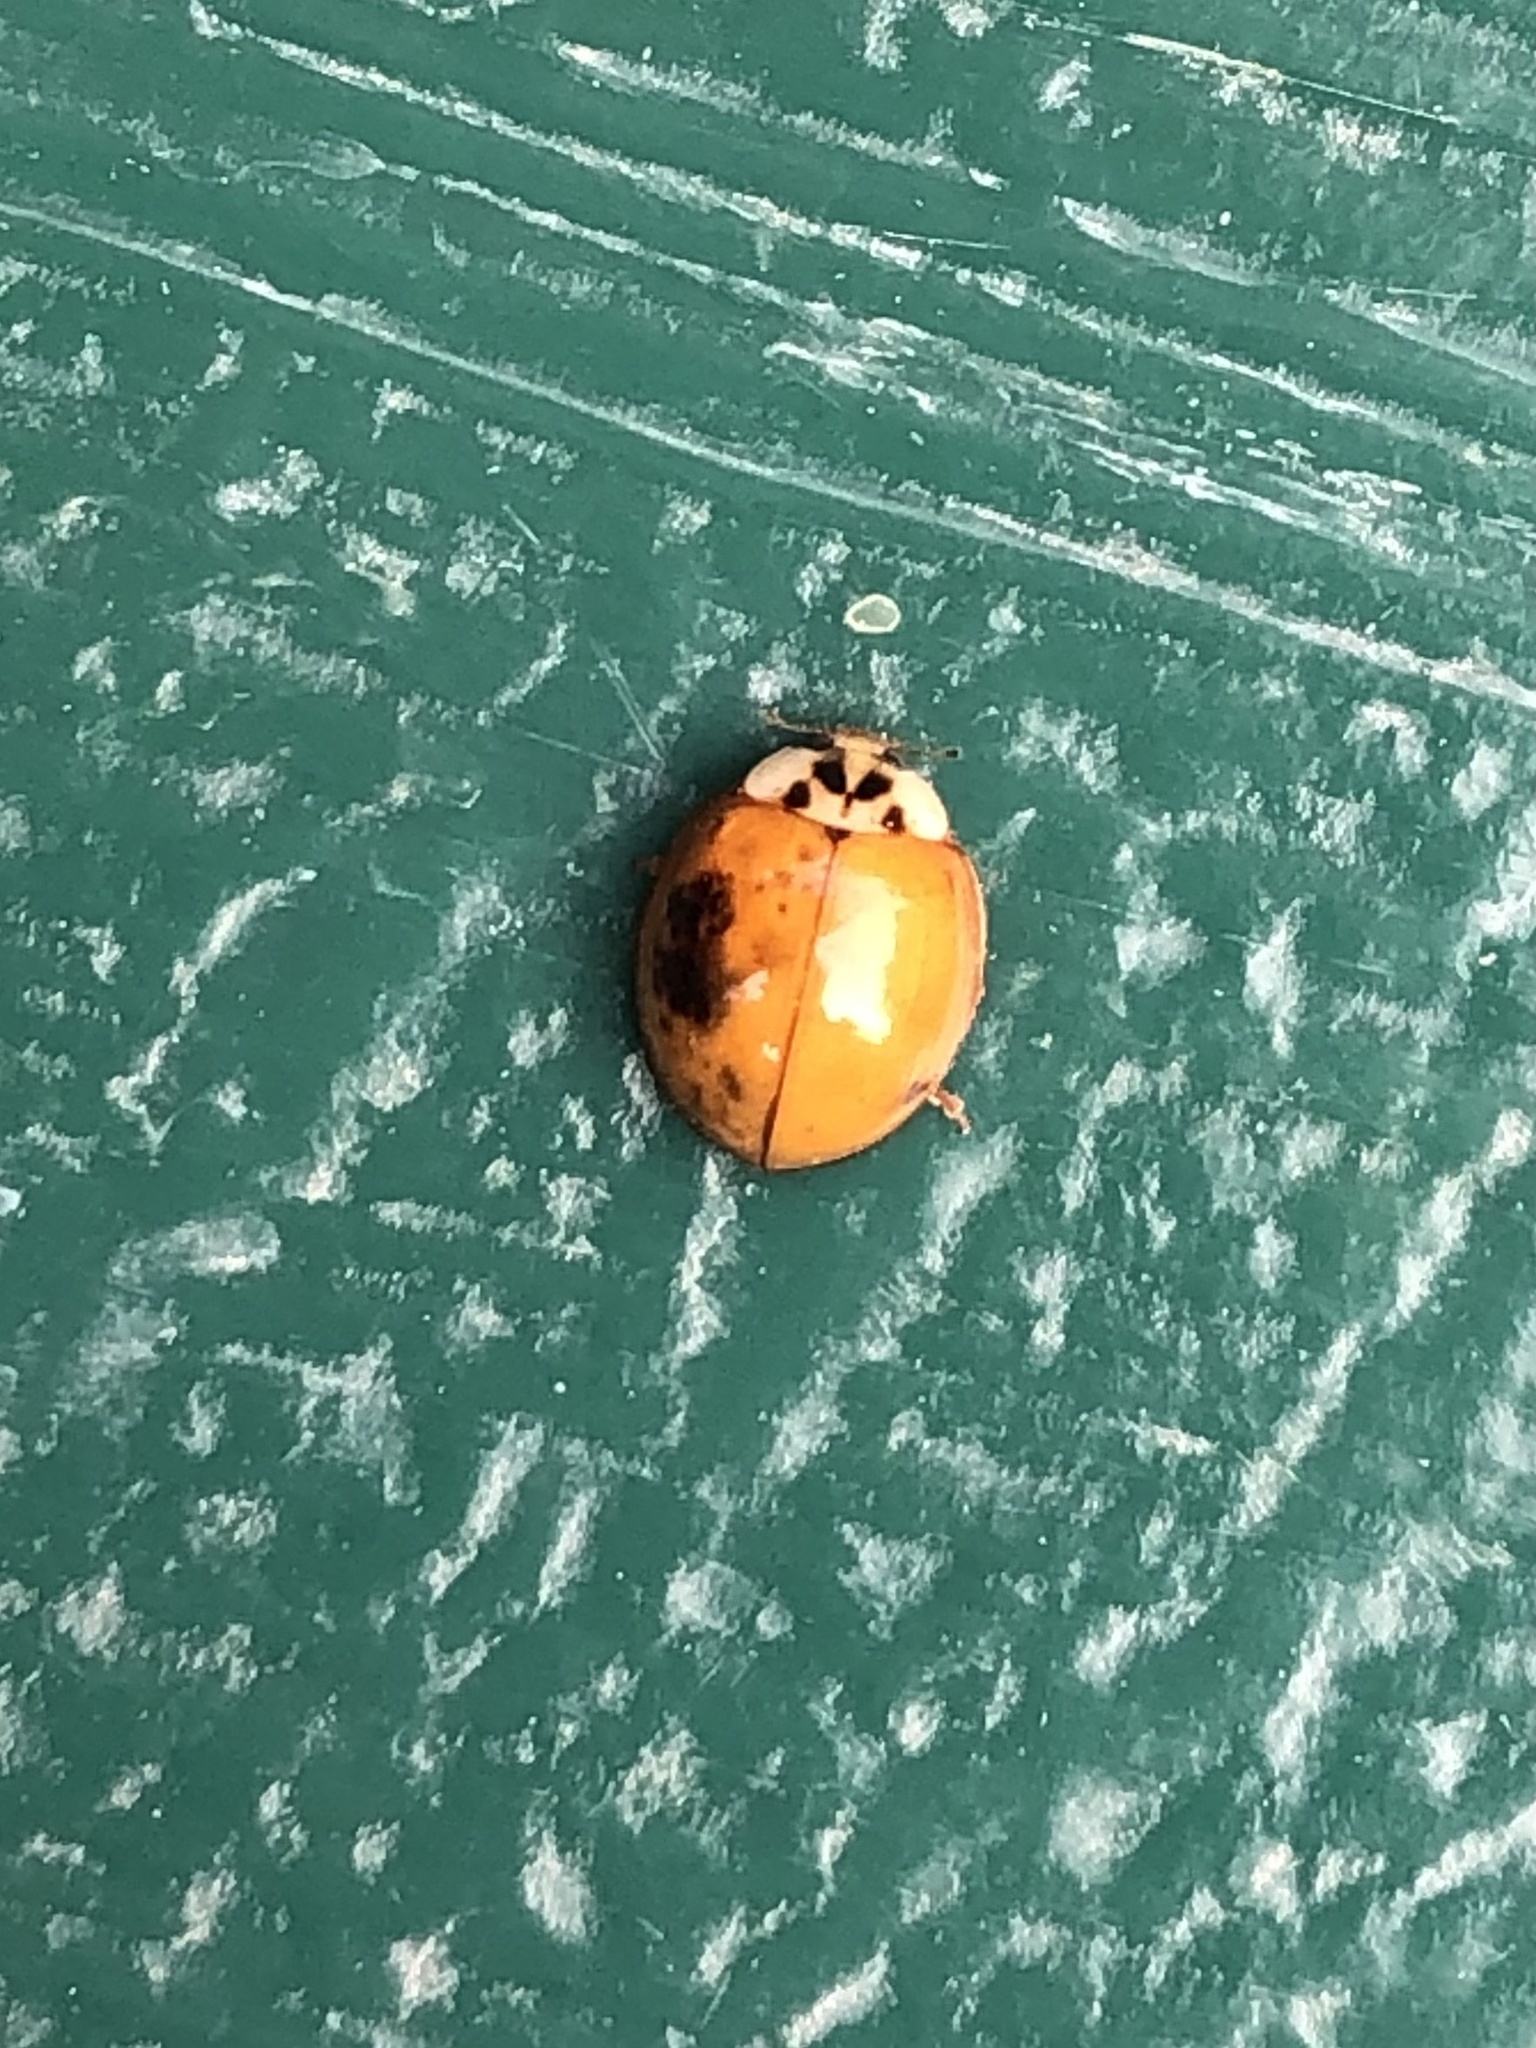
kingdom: Animalia
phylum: Arthropoda
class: Insecta
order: Coleoptera
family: Coccinellidae
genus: Harmonia
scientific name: Harmonia axyridis
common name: Harlequin ladybird
